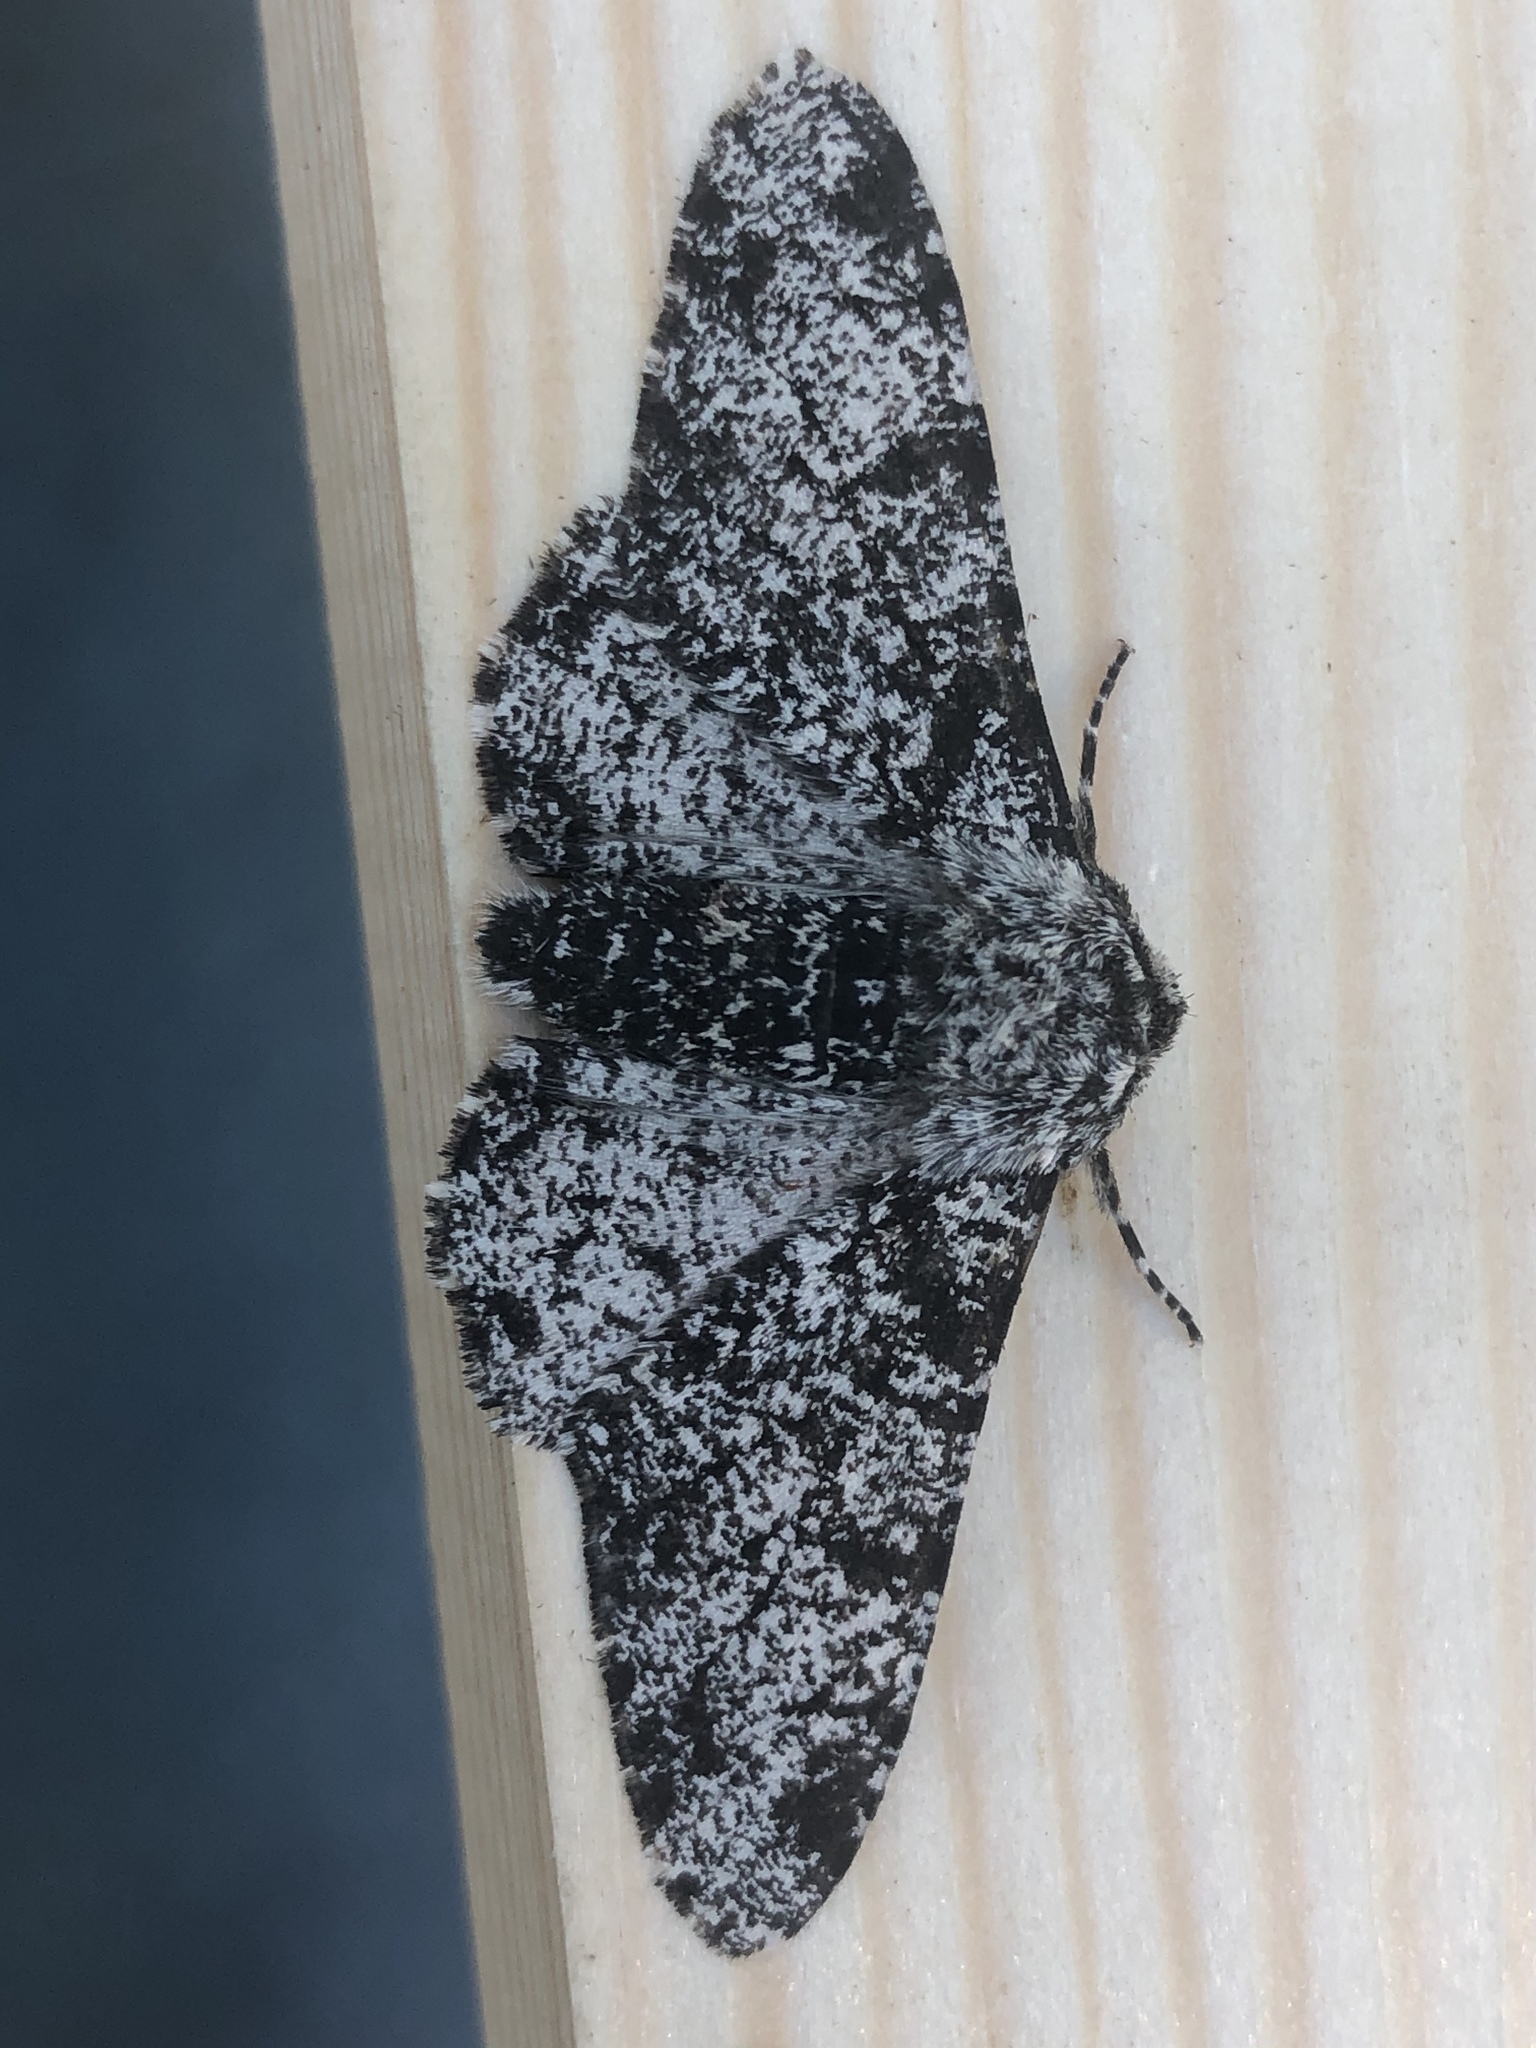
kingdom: Animalia
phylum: Arthropoda
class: Insecta
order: Lepidoptera
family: Geometridae
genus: Biston
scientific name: Biston betularia
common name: Peppered moth
